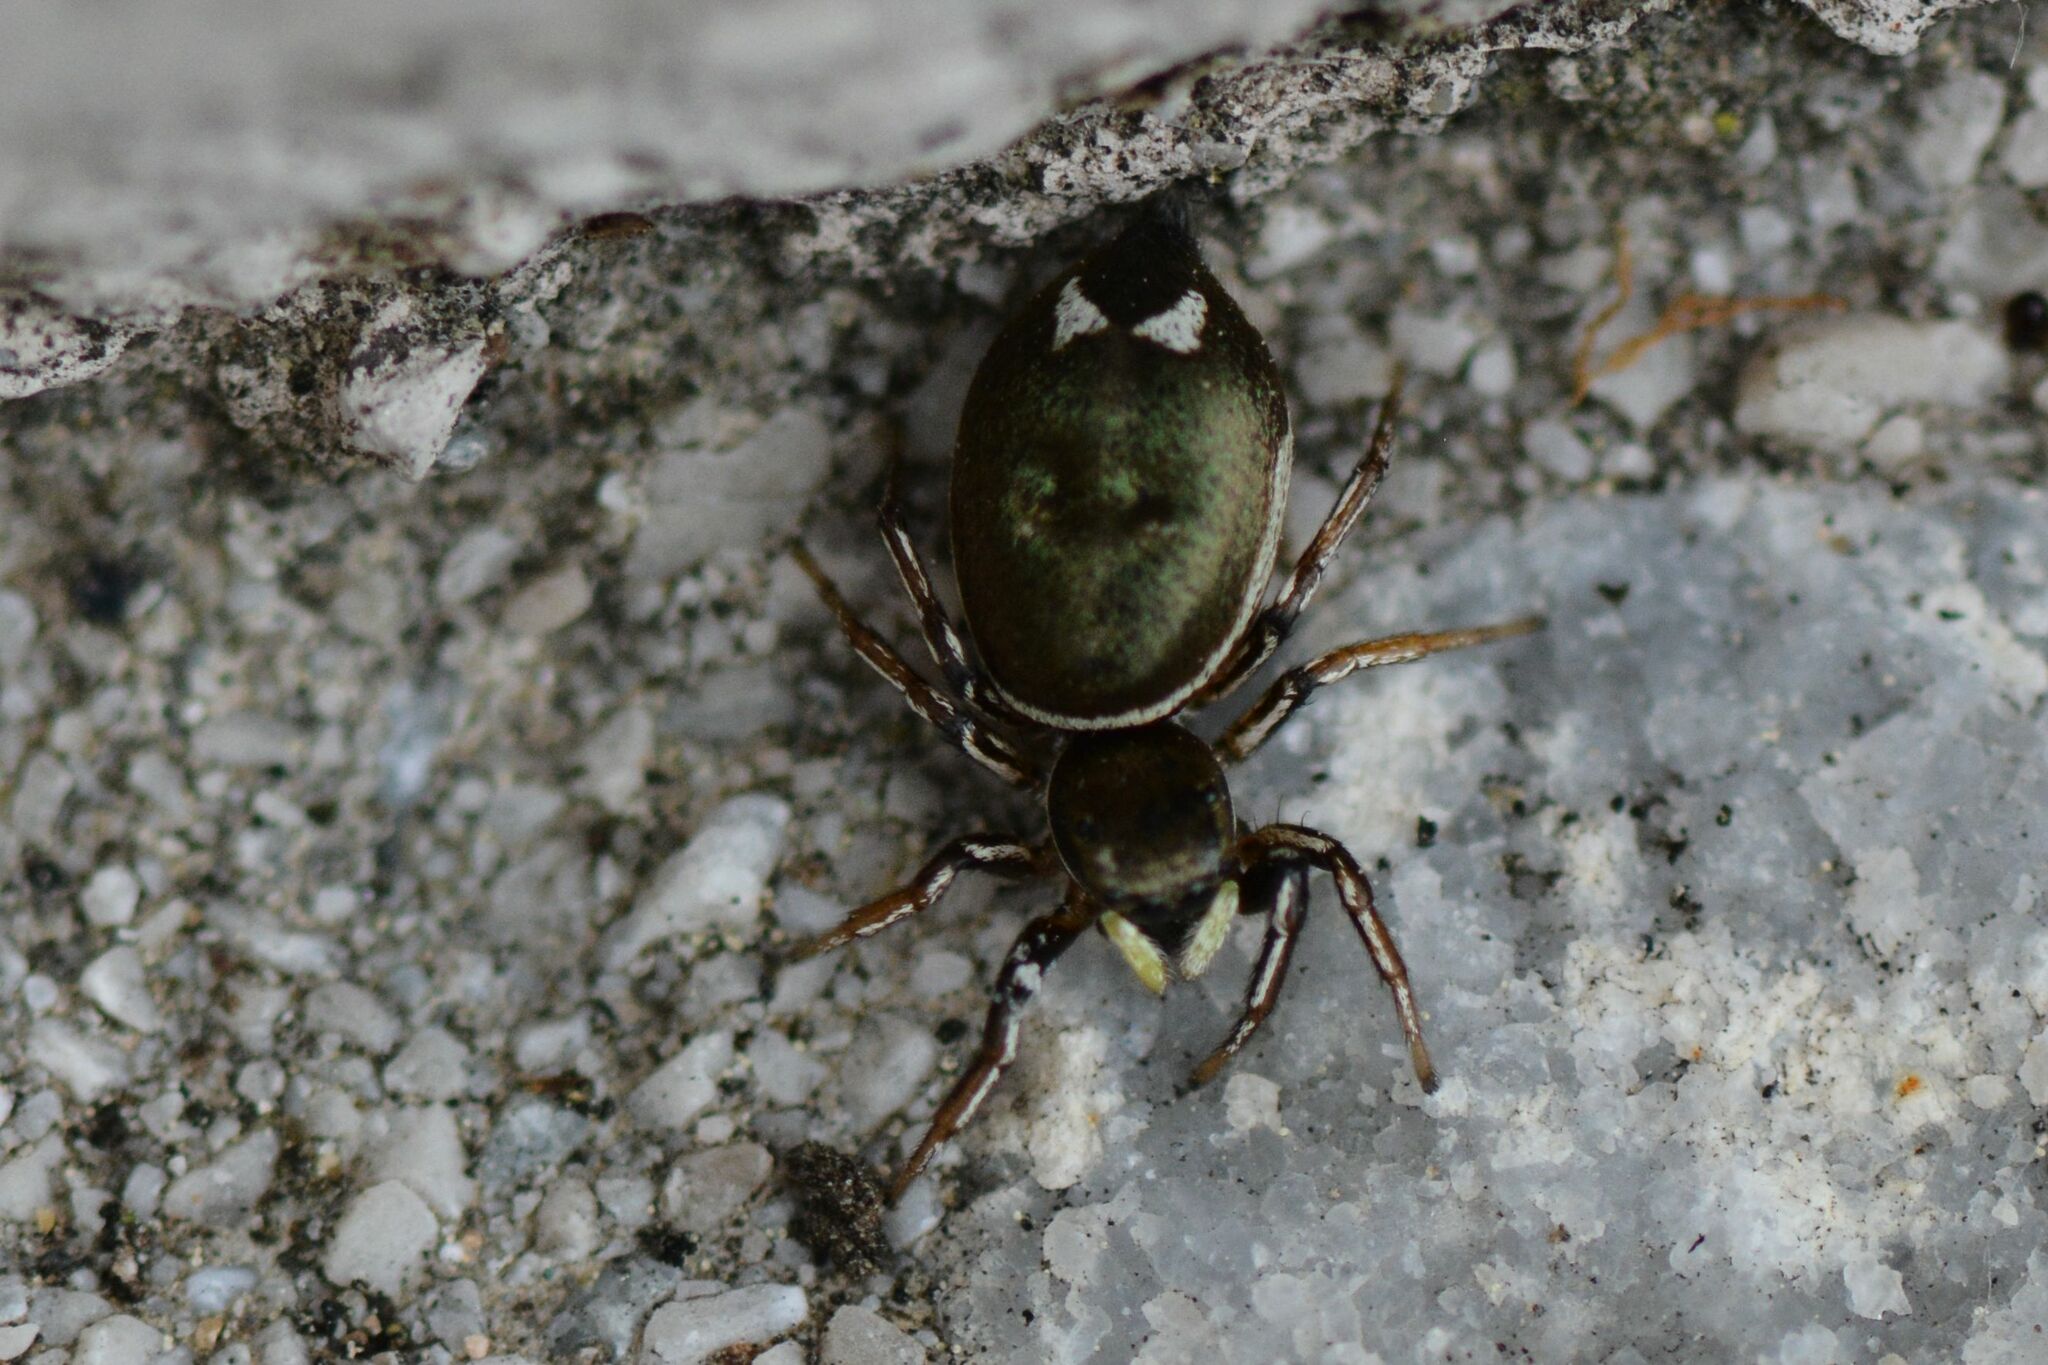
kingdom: Animalia
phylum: Arthropoda
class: Arachnida
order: Araneae
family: Salticidae
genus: Heliophanus
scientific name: Heliophanus aeneus
